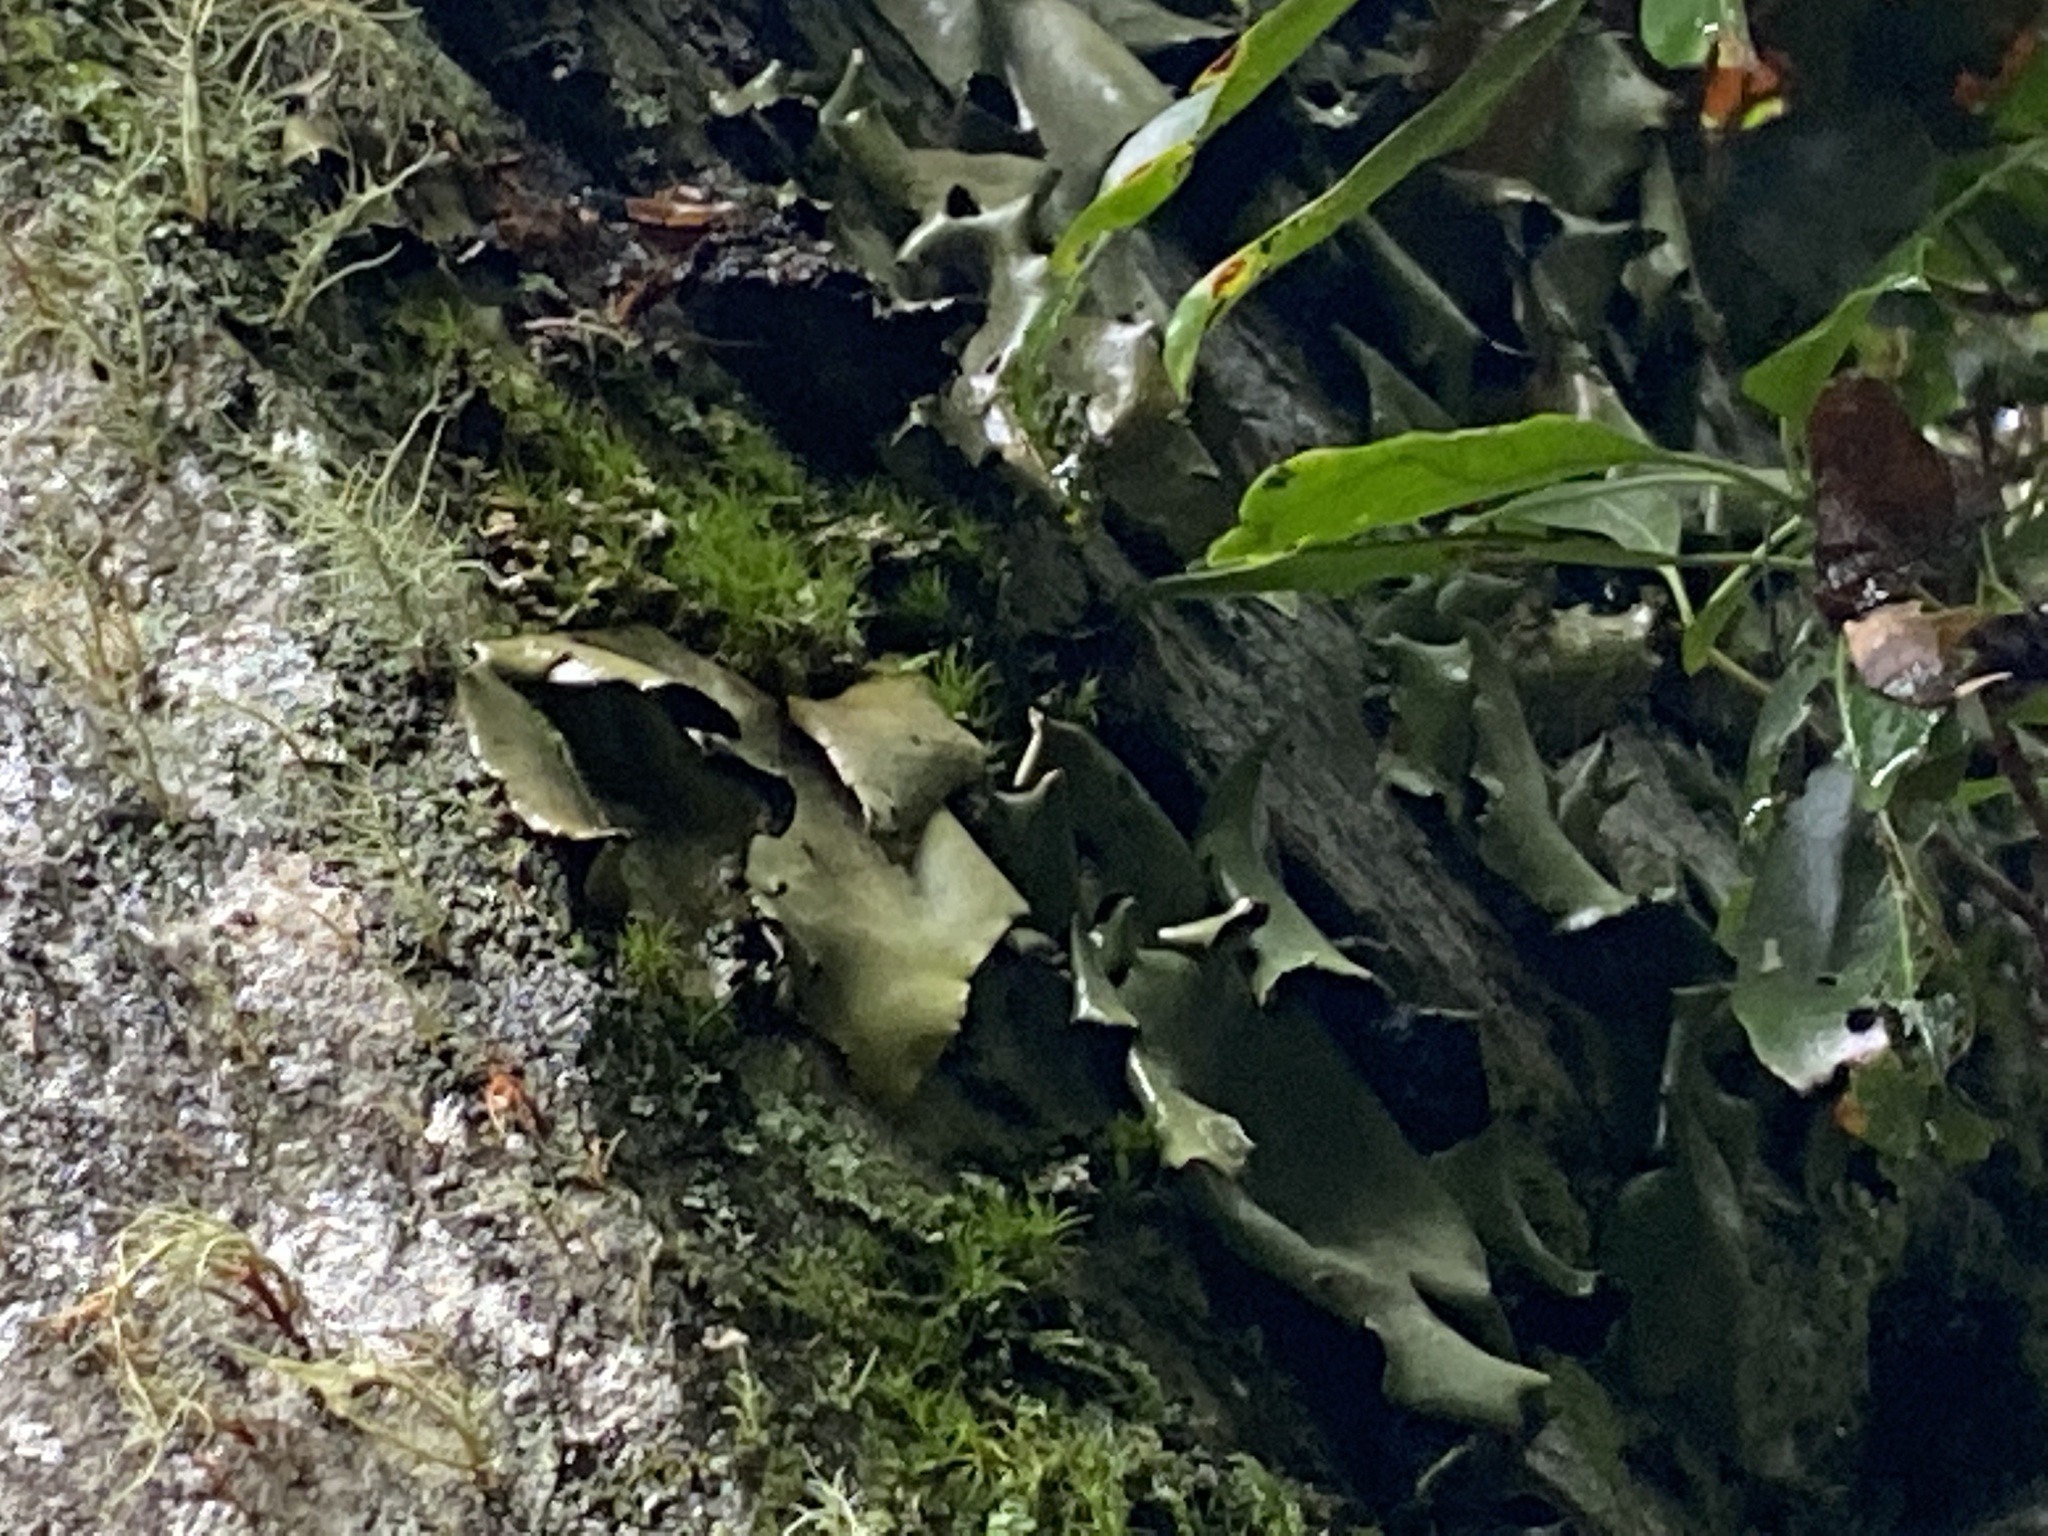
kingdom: Fungi
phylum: Ascomycota
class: Lecanoromycetes
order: Umbilicariales
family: Umbilicariaceae
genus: Umbilicaria
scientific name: Umbilicaria mammulata
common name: Smooth rock tripe
